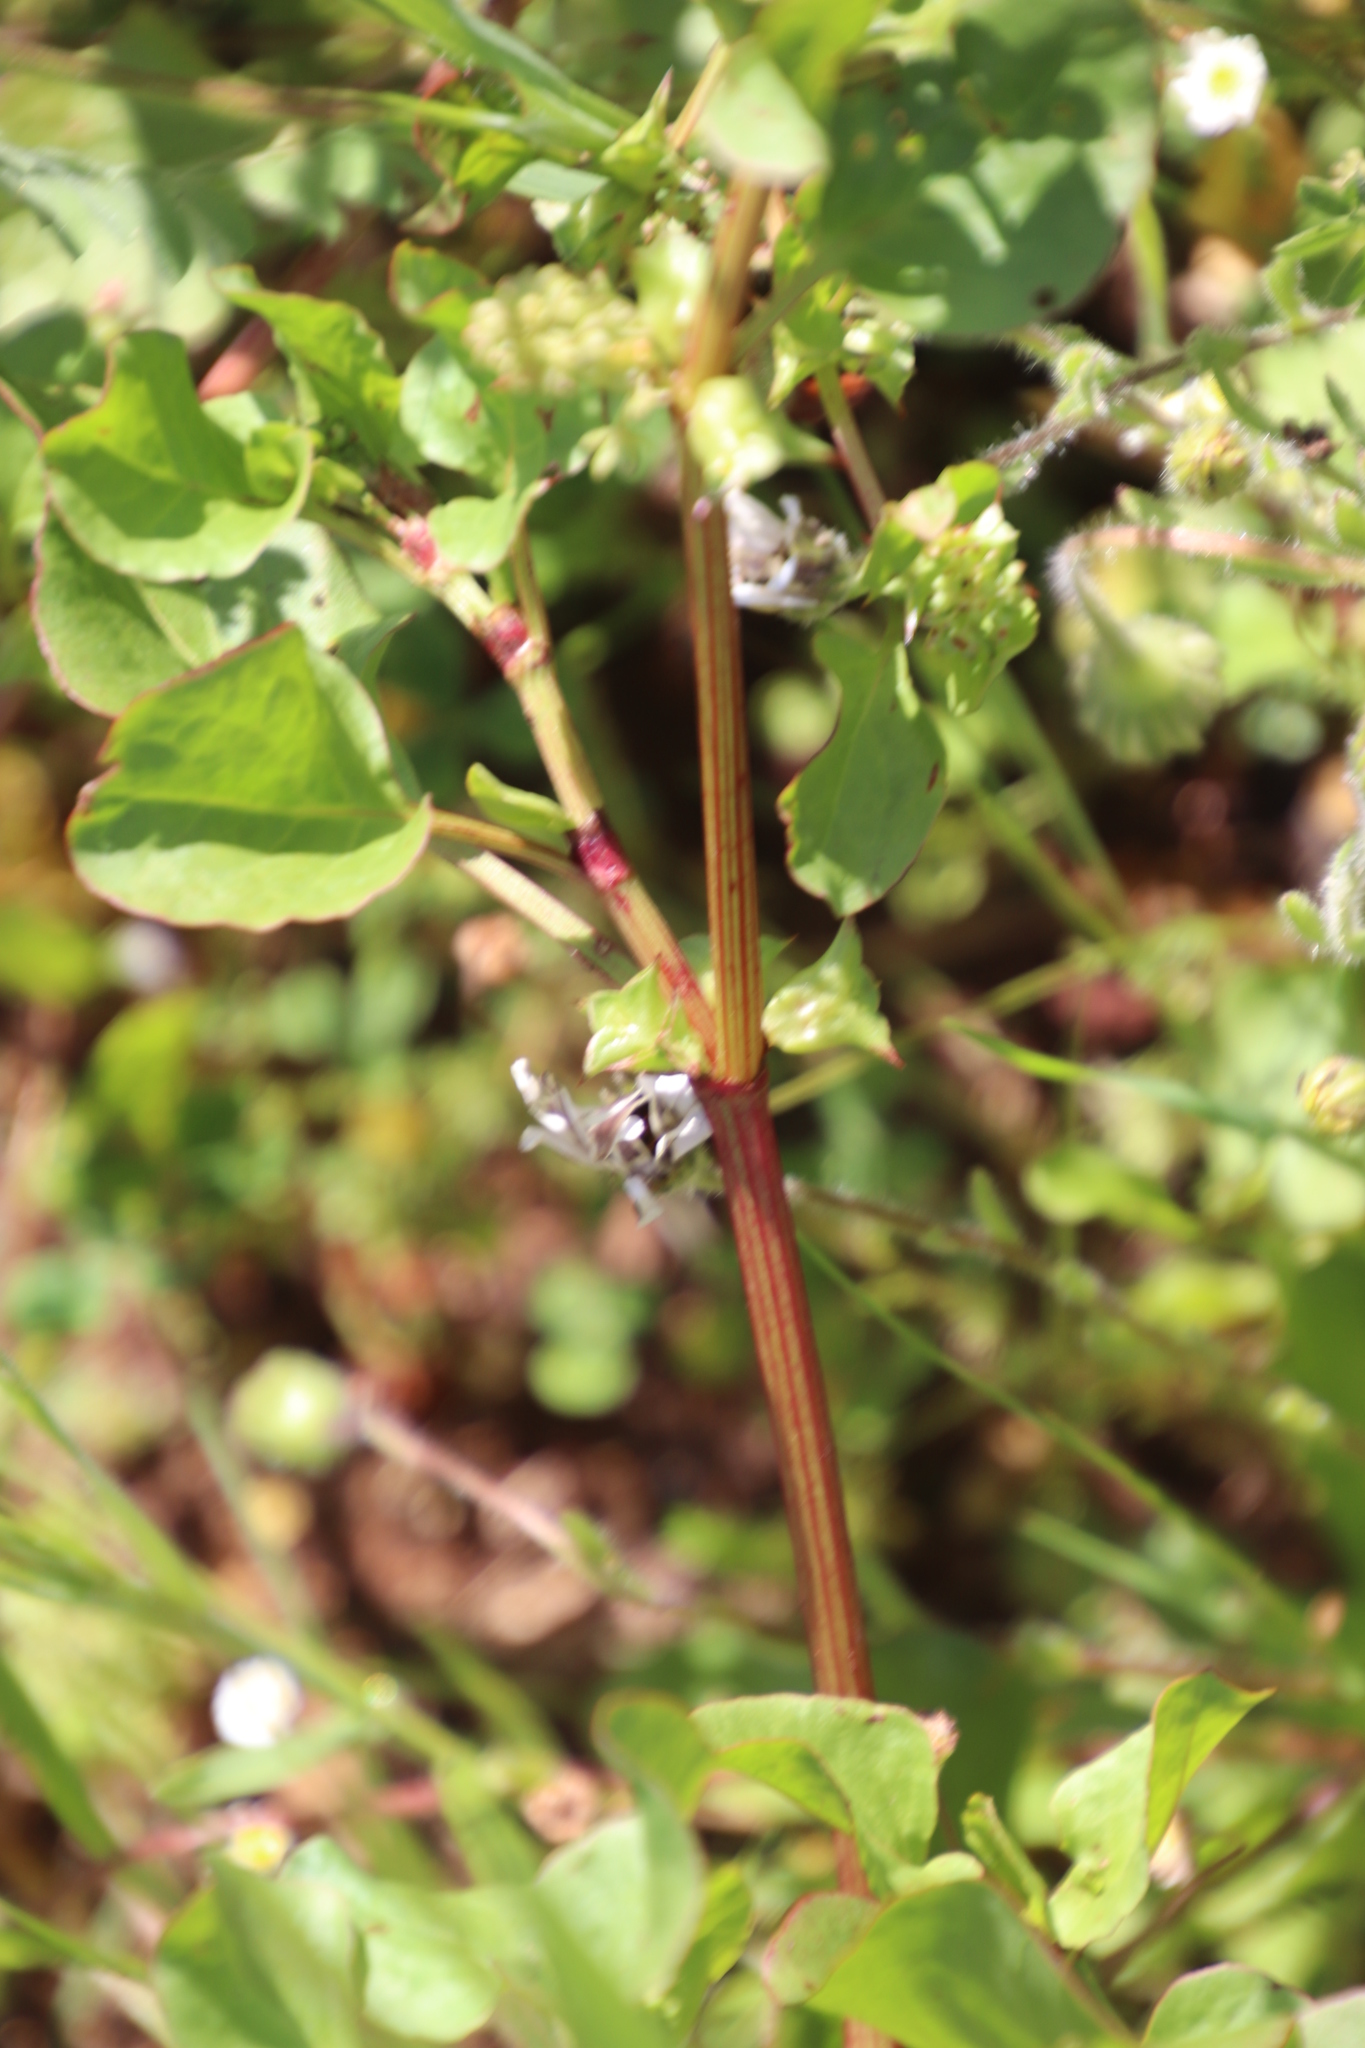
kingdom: Plantae
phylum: Tracheophyta
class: Magnoliopsida
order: Caryophyllales
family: Polygonaceae
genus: Rumex
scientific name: Rumex hypogaeus
